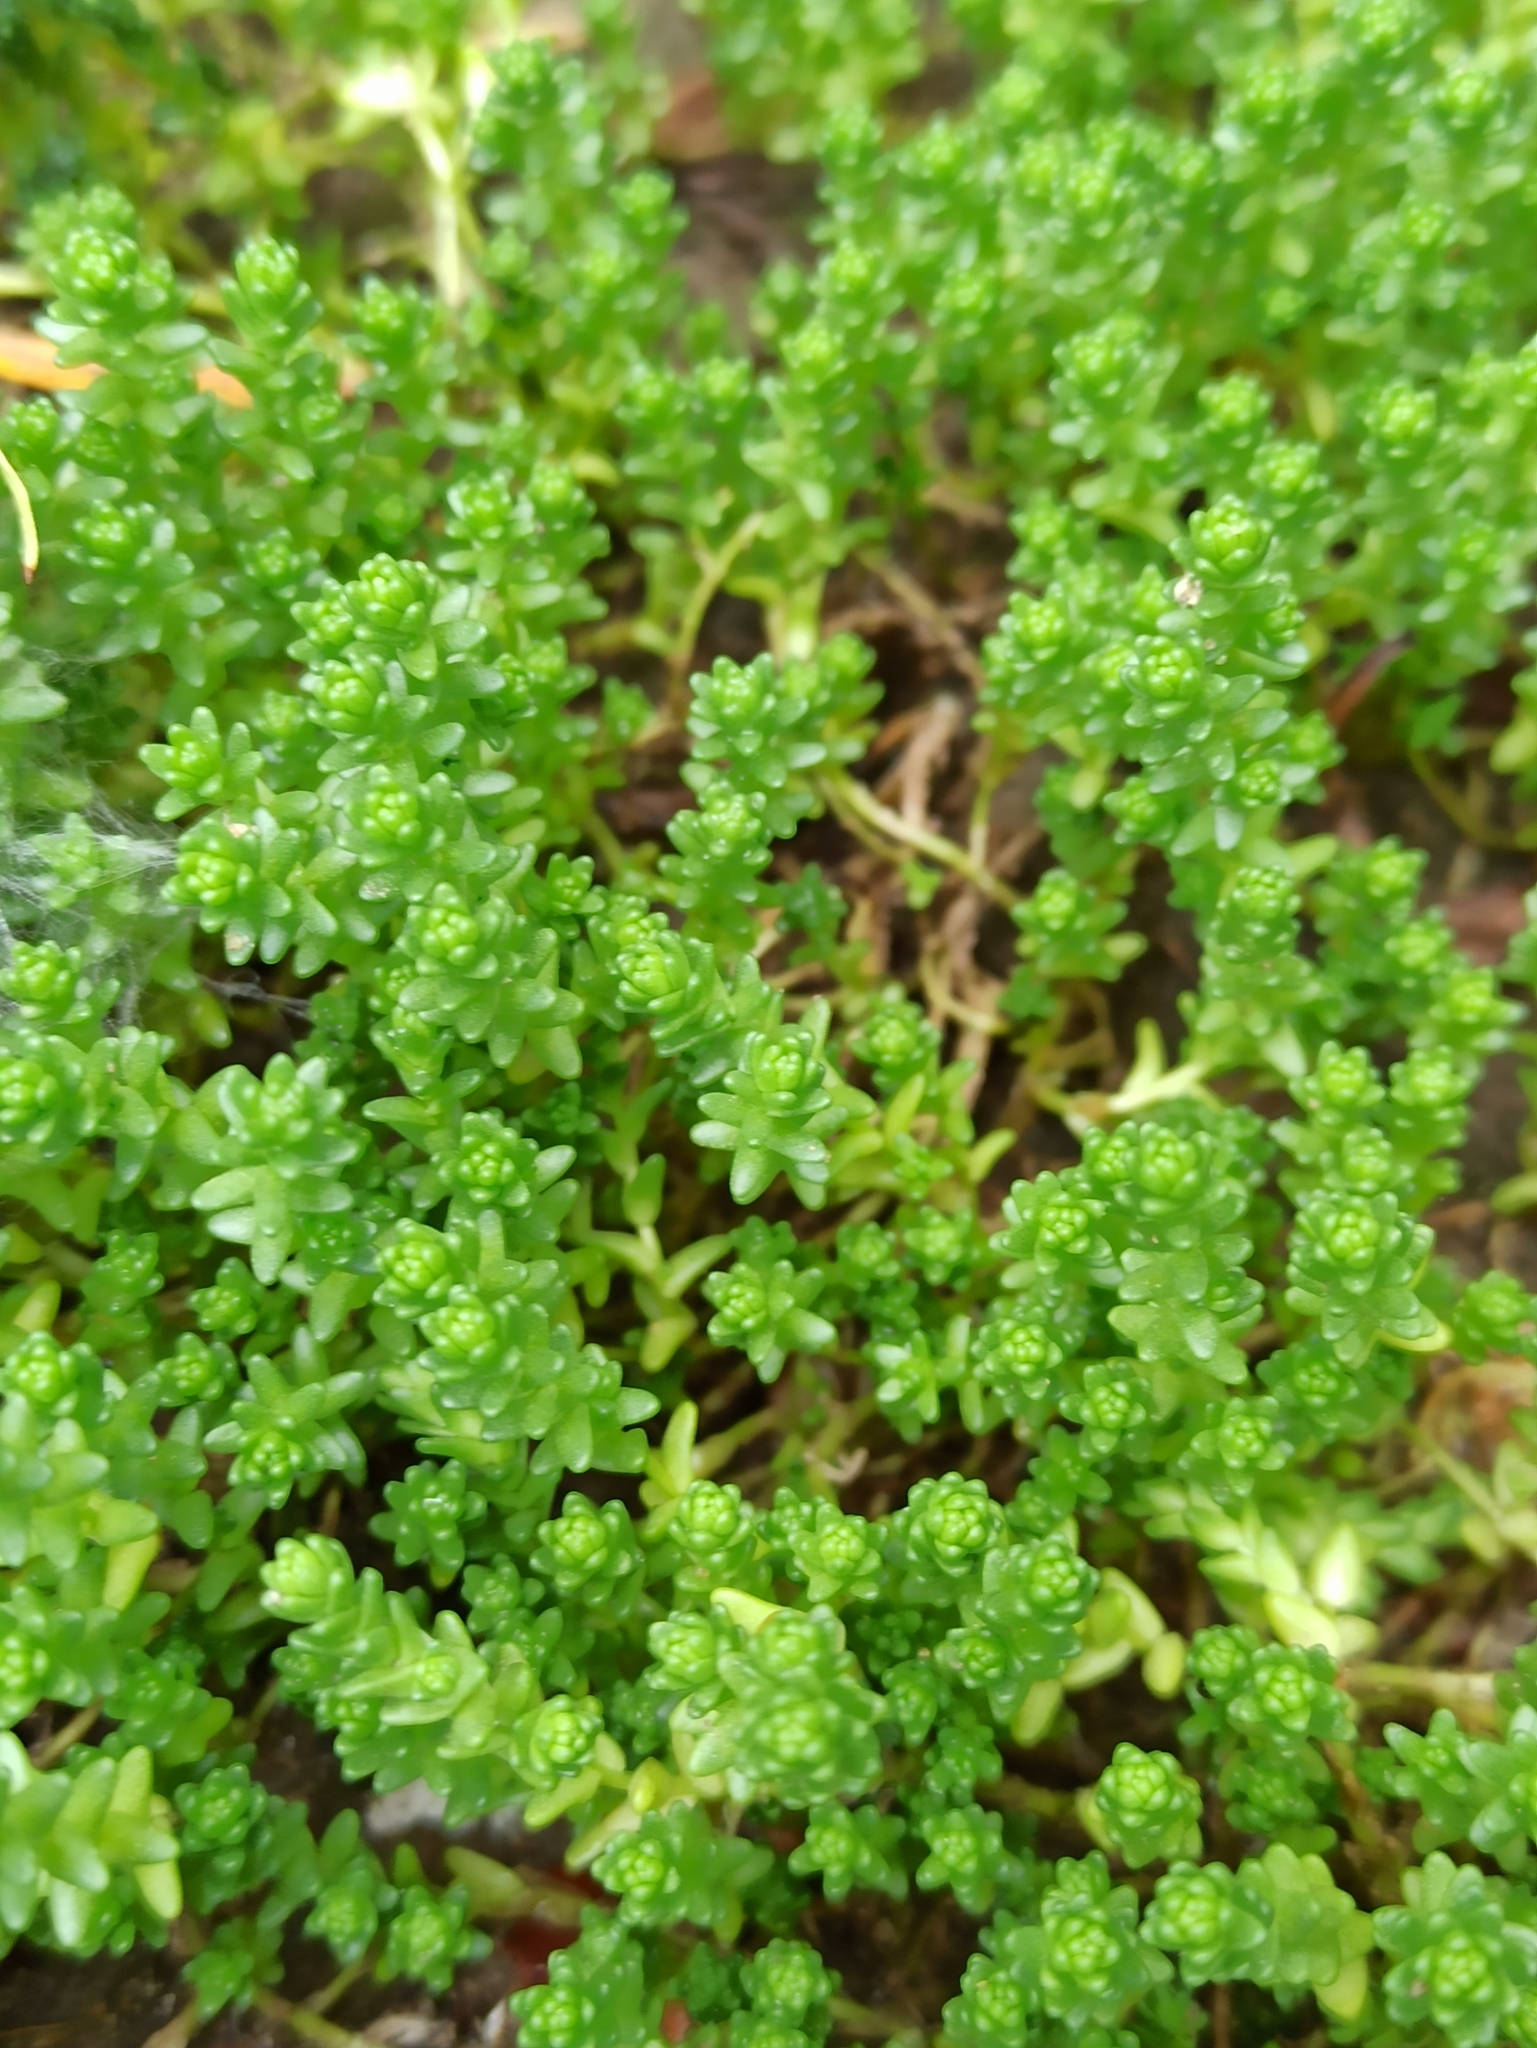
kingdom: Plantae
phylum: Tracheophyta
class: Magnoliopsida
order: Saxifragales
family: Crassulaceae
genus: Sedum
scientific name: Sedum acre
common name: Biting stonecrop
